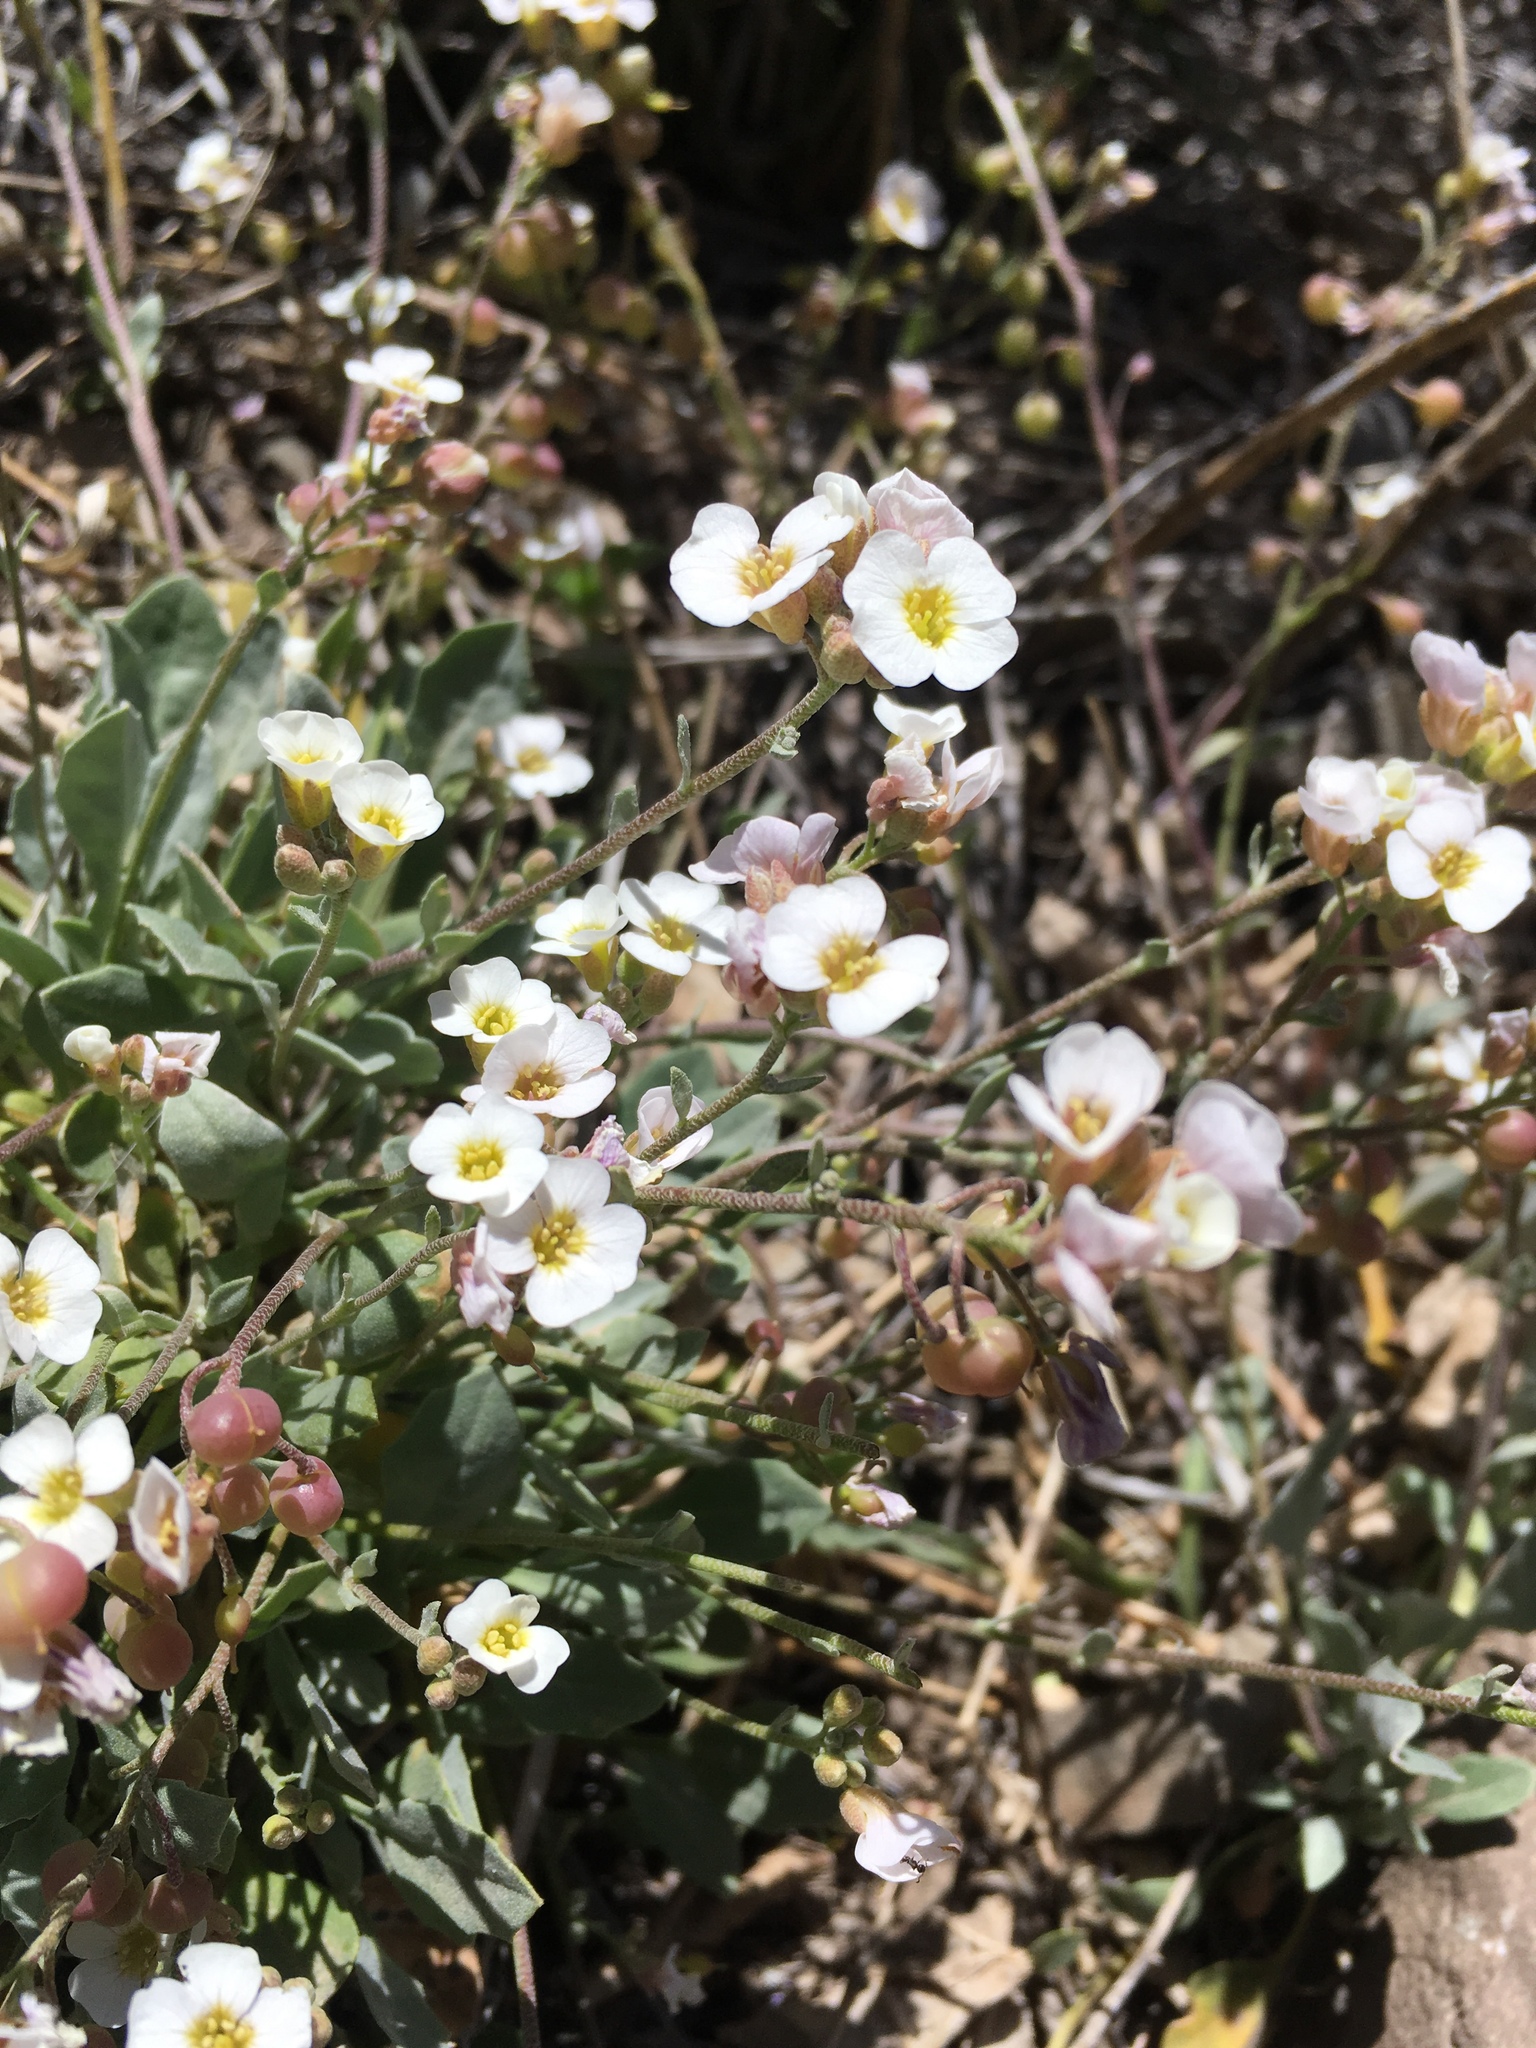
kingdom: Plantae
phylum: Tracheophyta
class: Magnoliopsida
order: Brassicales
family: Brassicaceae
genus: Physaria
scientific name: Physaria purpurea
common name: Rose bladderpod
